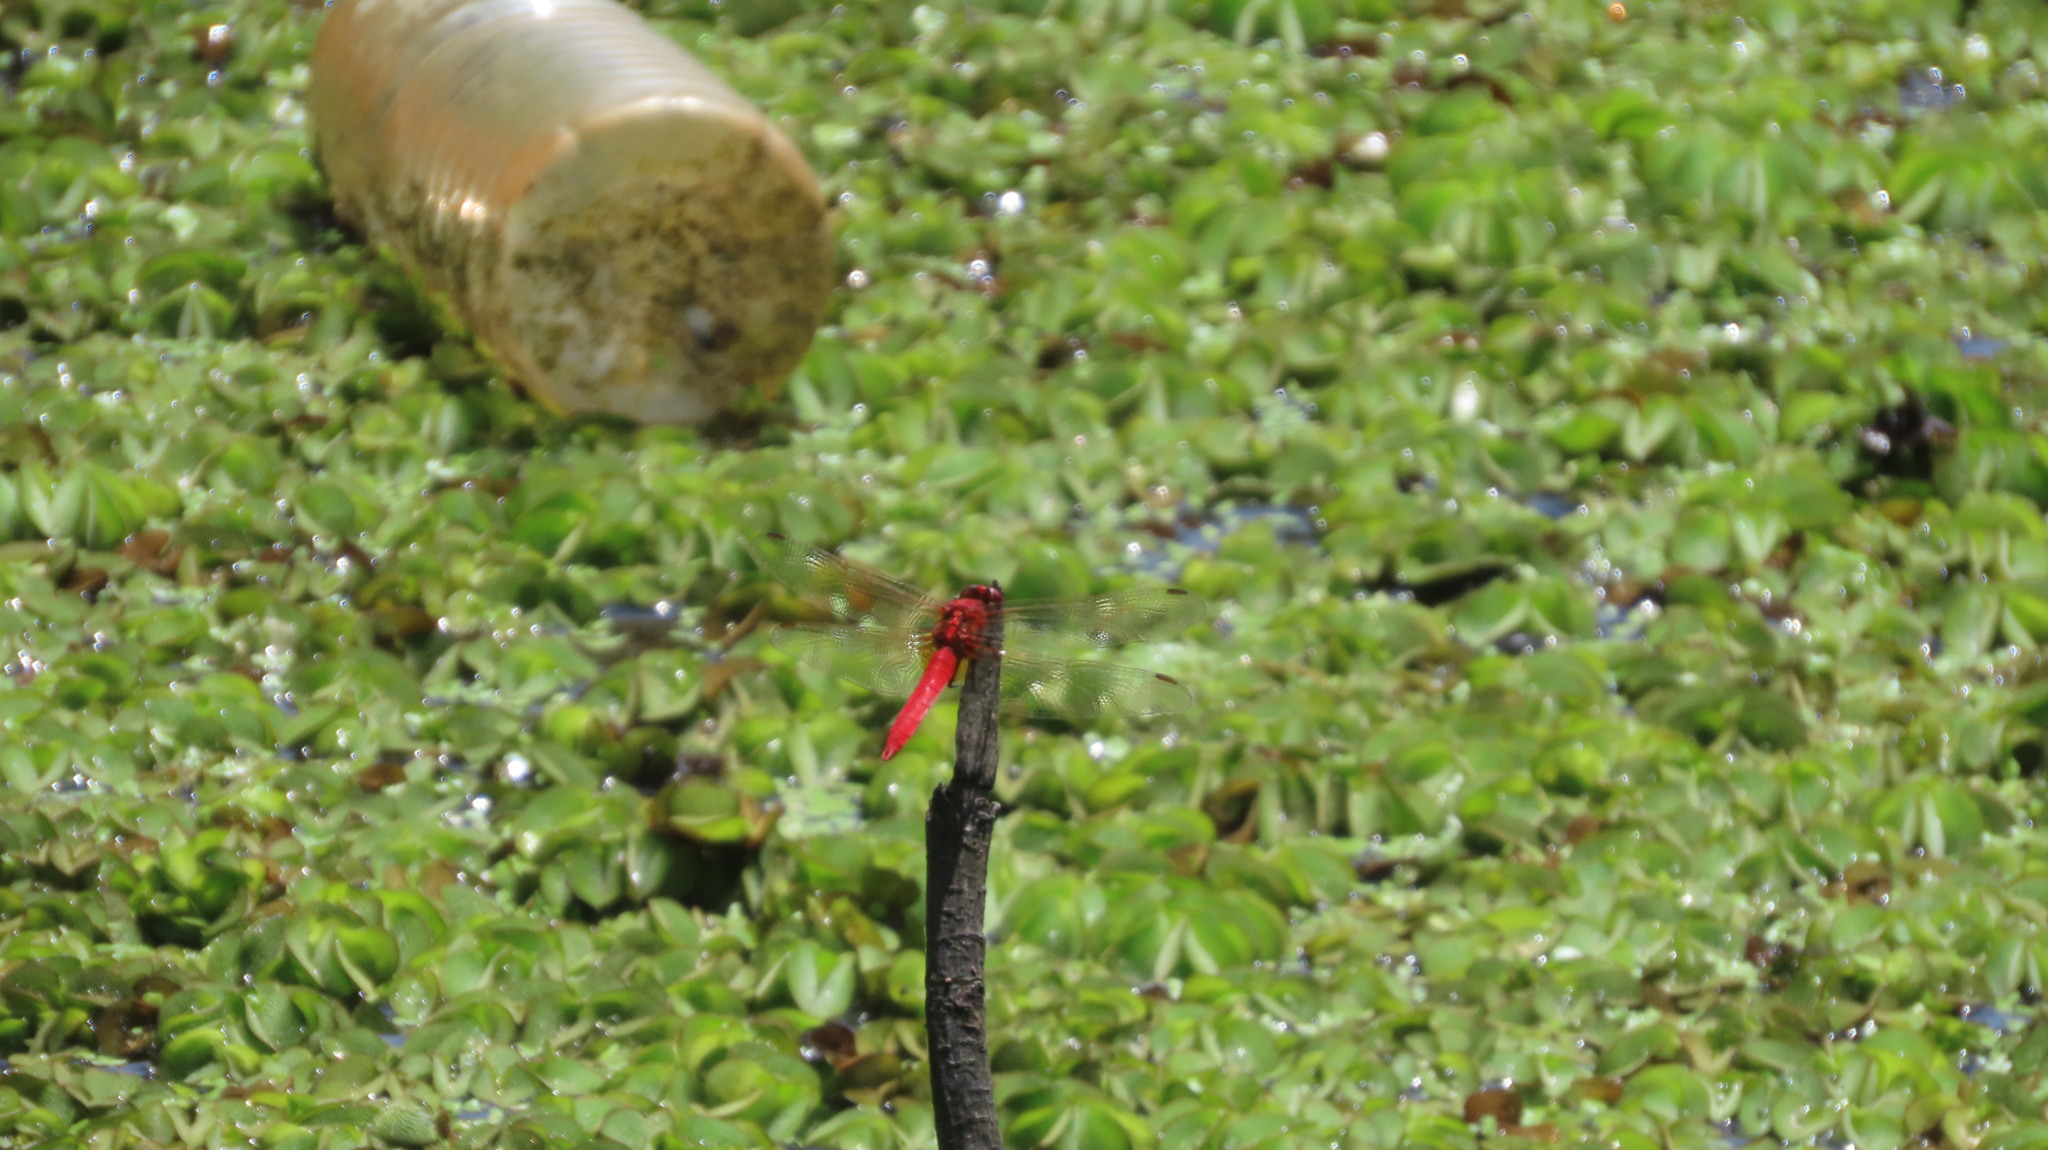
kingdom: Animalia
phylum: Arthropoda
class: Insecta
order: Odonata
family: Libellulidae
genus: Rhodothemis
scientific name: Rhodothemis rufa
